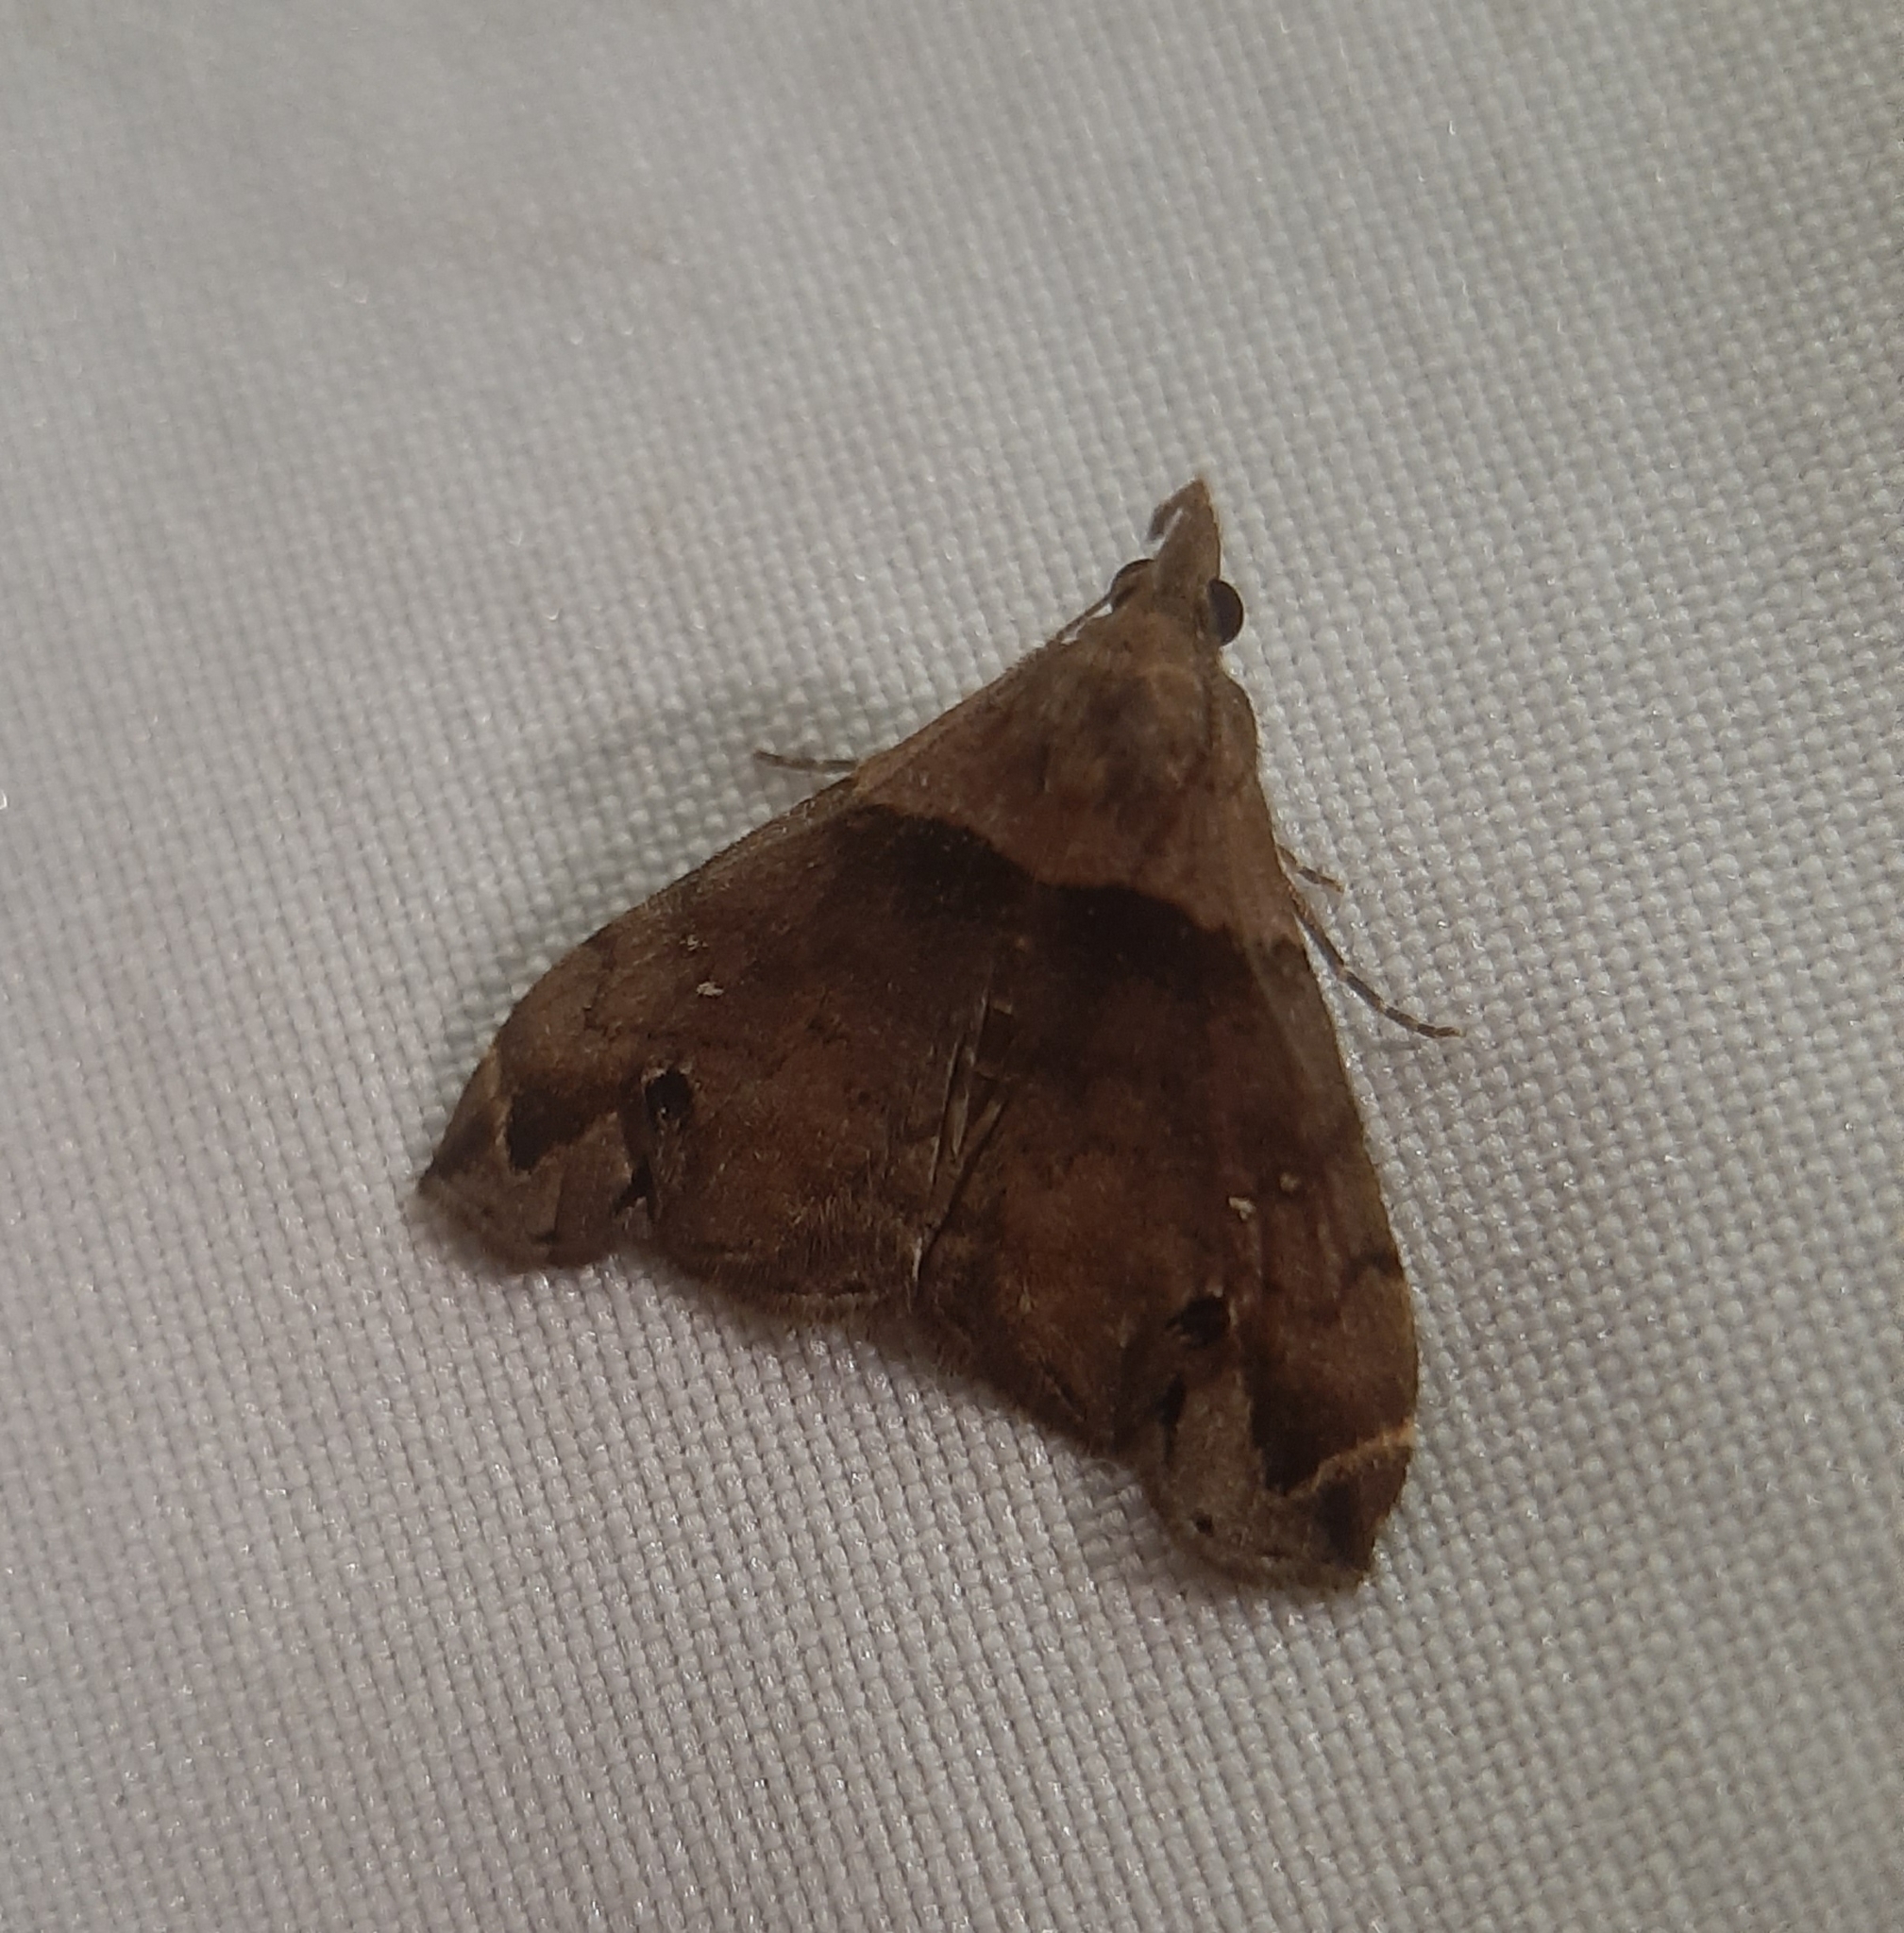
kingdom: Animalia
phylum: Arthropoda
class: Insecta
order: Lepidoptera
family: Erebidae
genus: Lascoria
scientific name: Lascoria ambigualis
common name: Ambiguous moth
